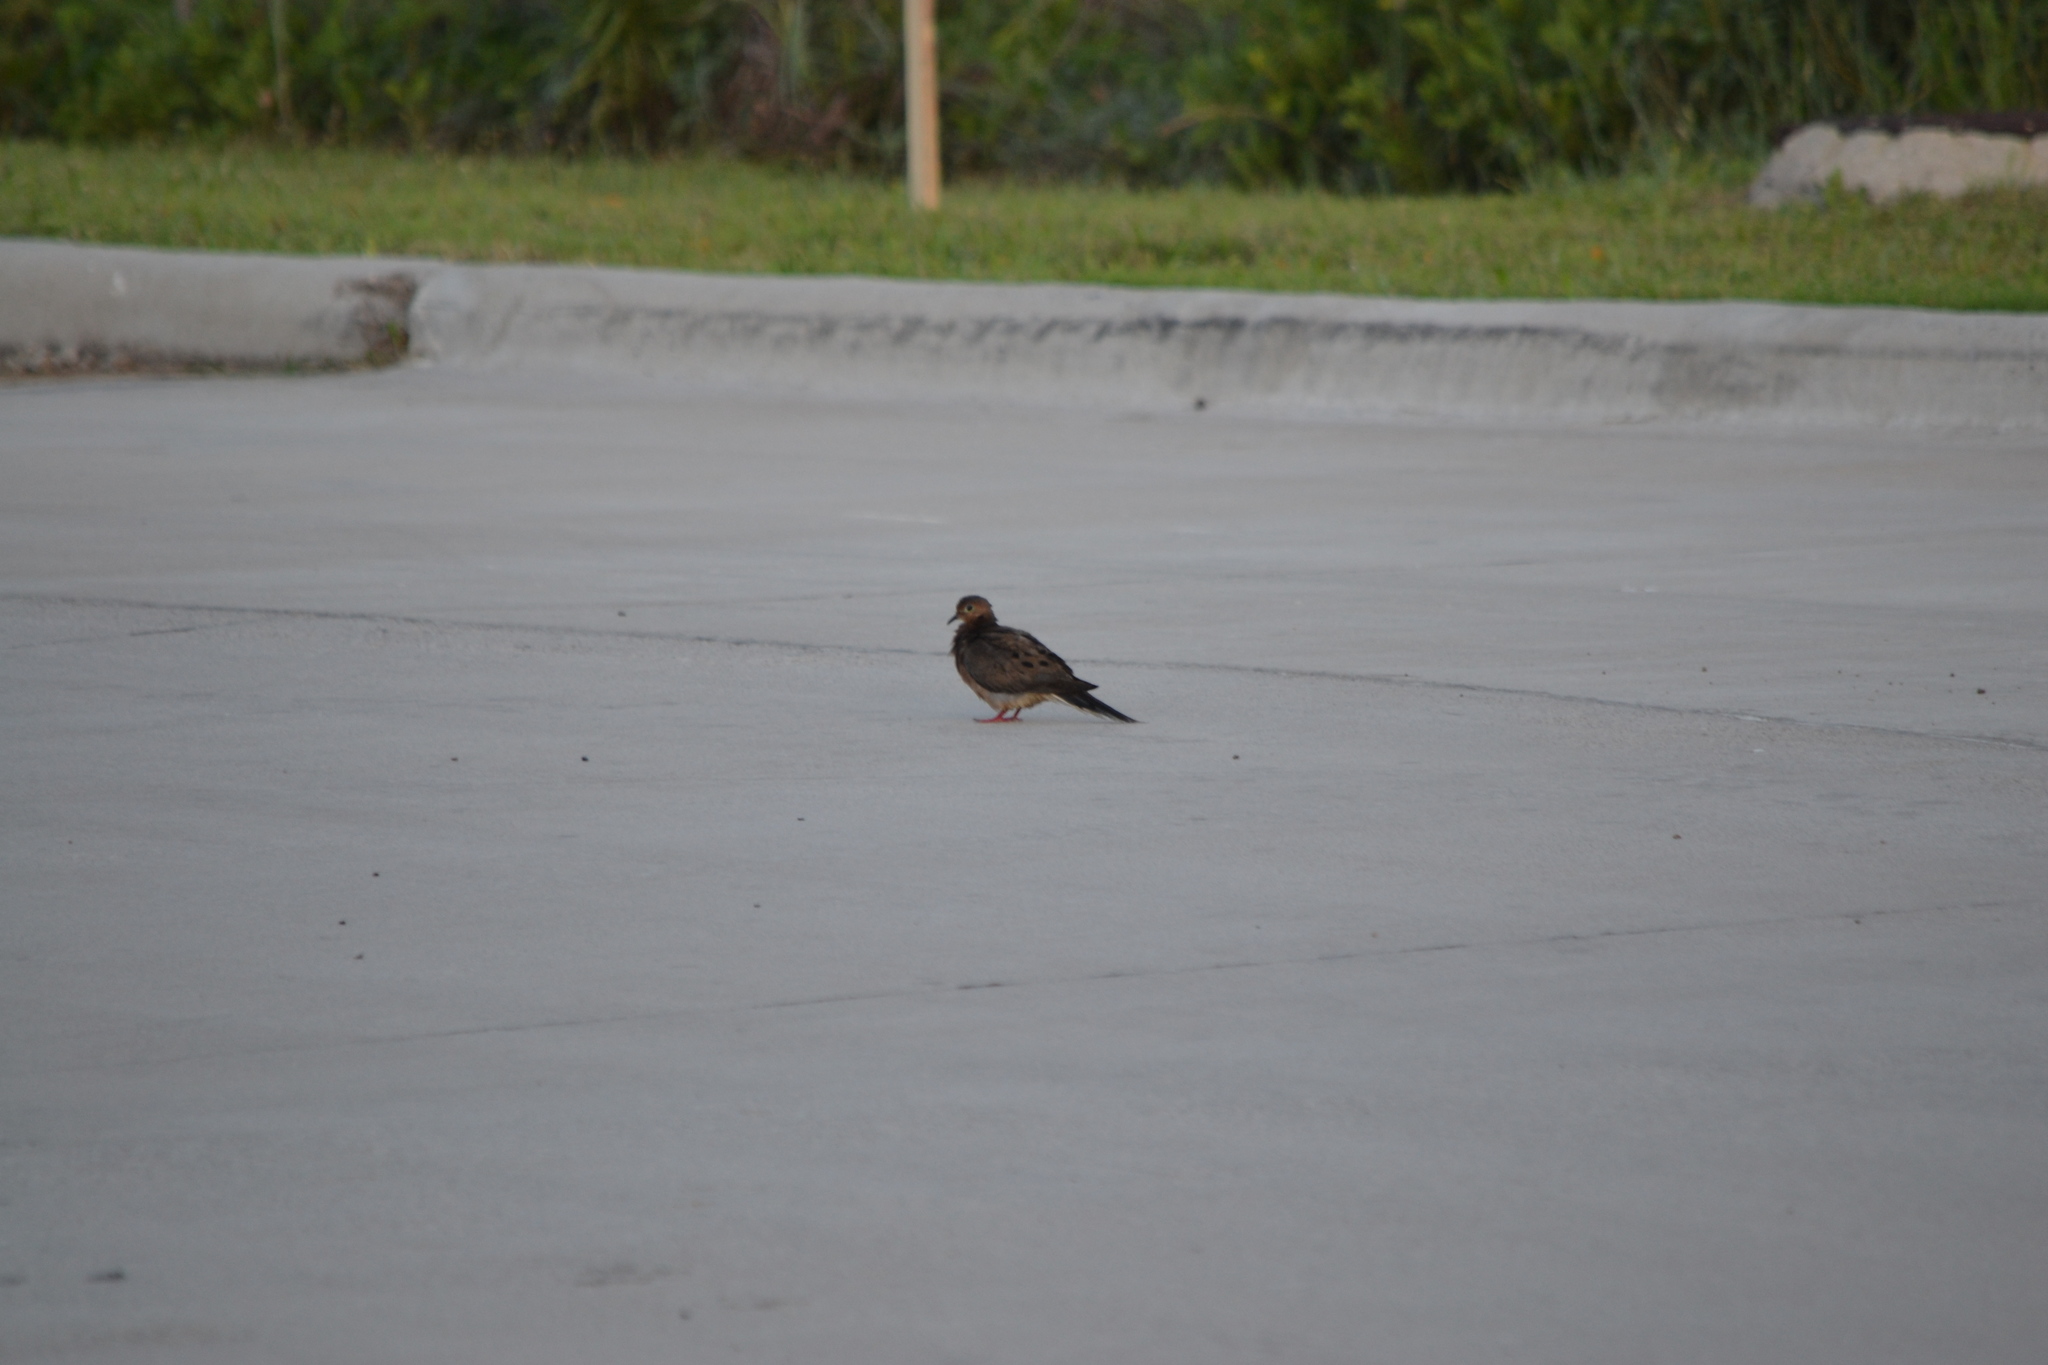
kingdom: Animalia
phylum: Chordata
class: Aves
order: Columbiformes
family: Columbidae
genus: Zenaida
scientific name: Zenaida macroura
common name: Mourning dove
